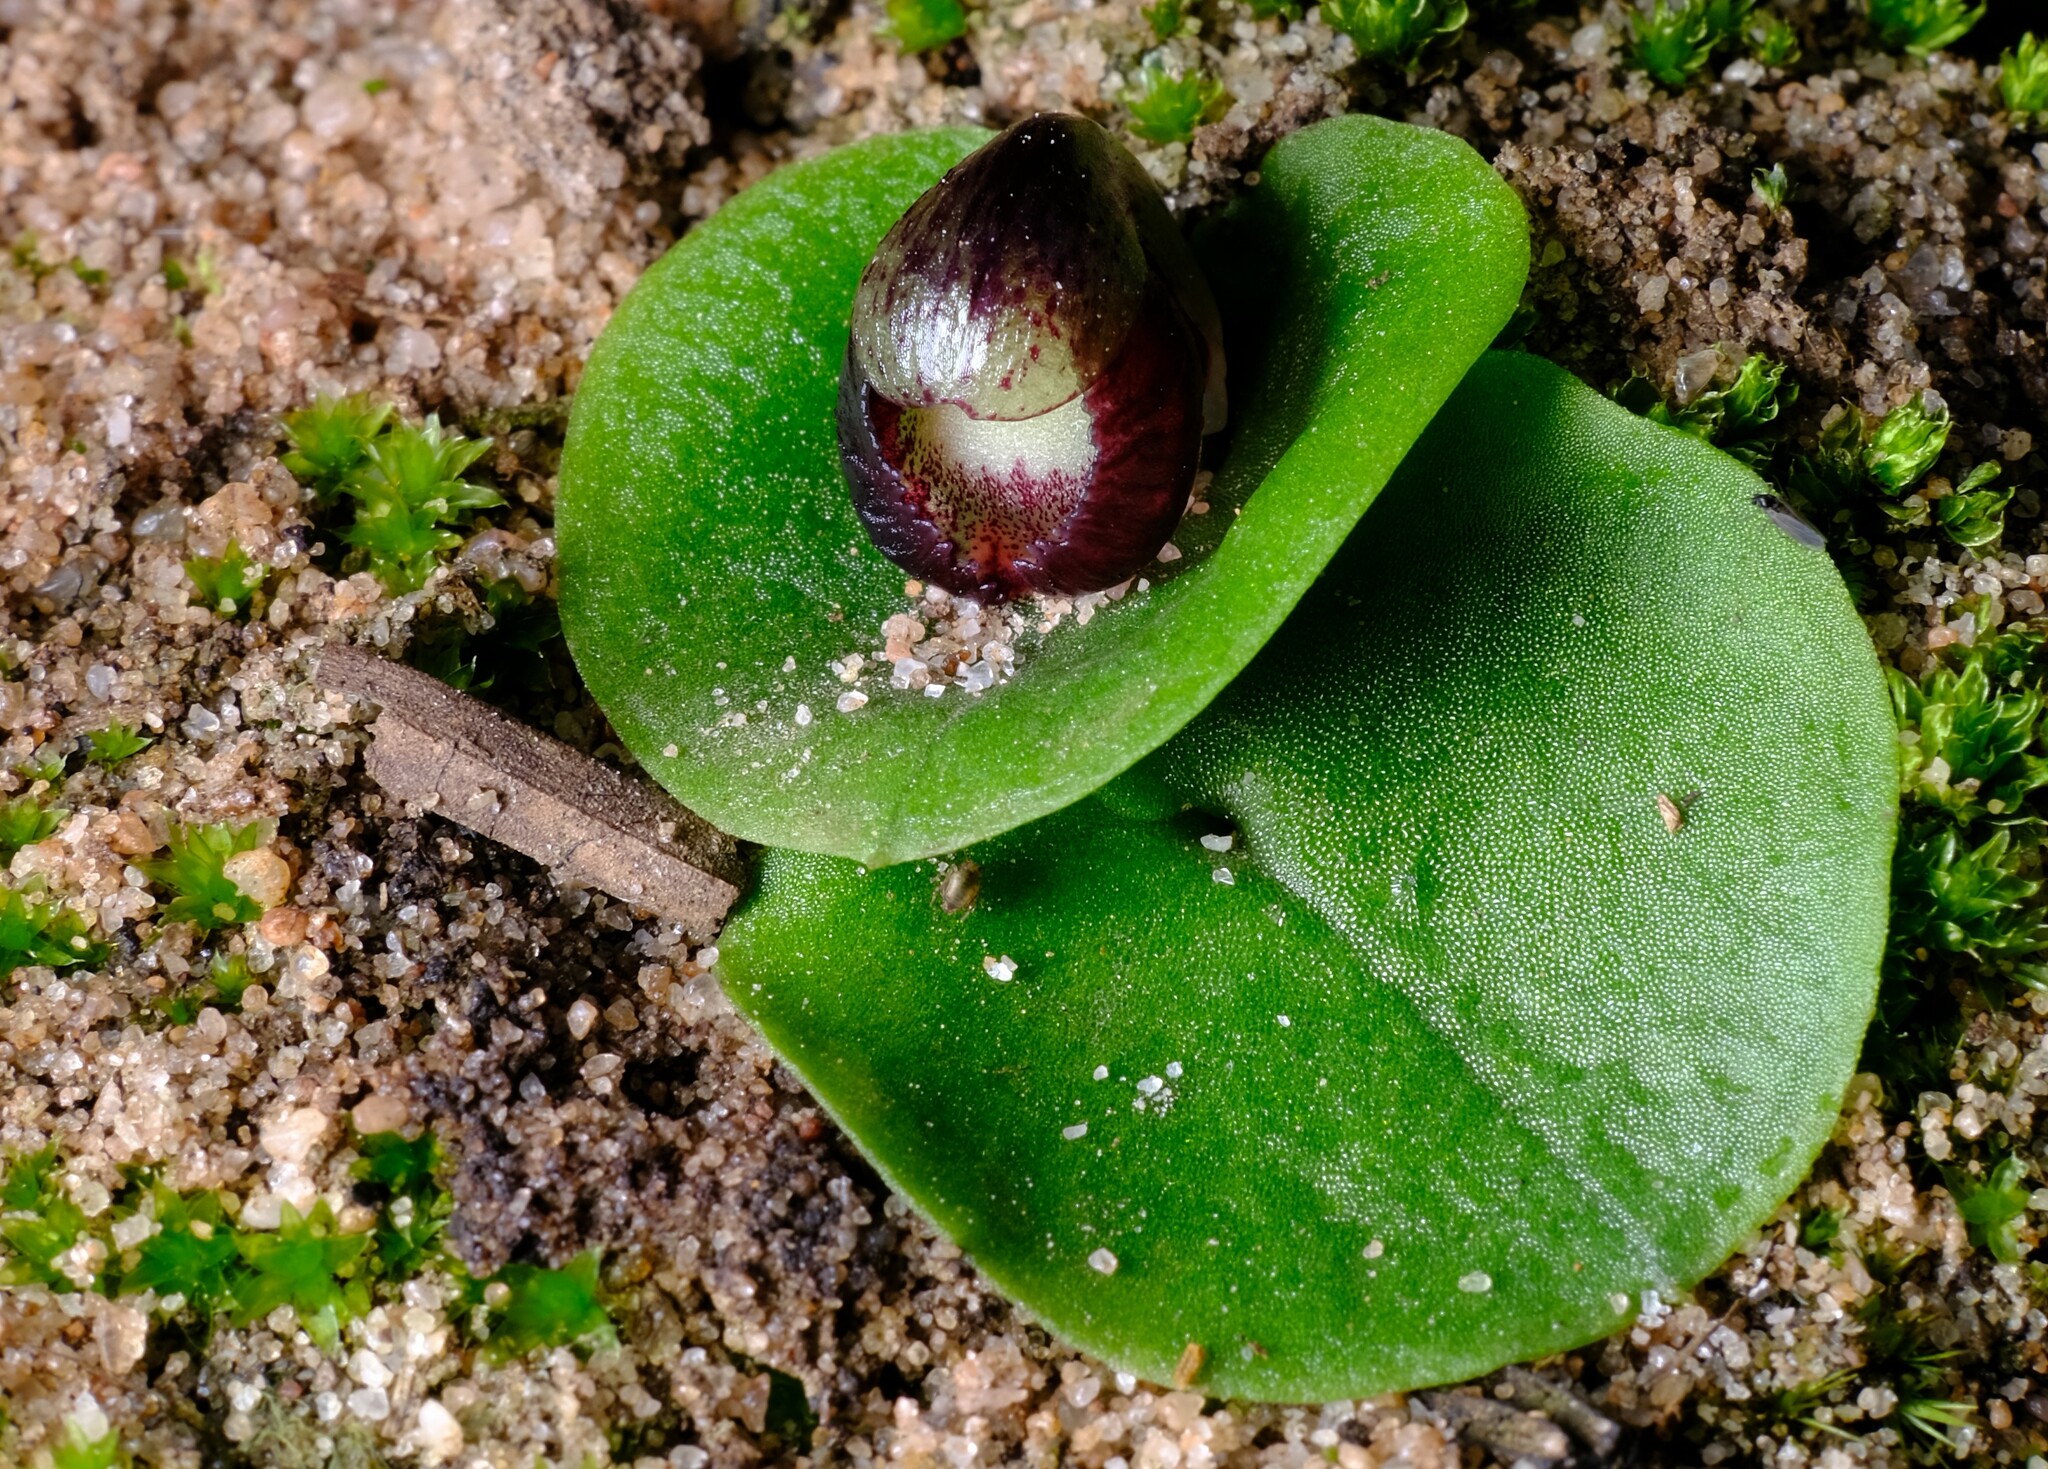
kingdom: Plantae
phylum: Tracheophyta
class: Liliopsida
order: Asparagales
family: Orchidaceae
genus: Corybas
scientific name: Corybas incurvus
